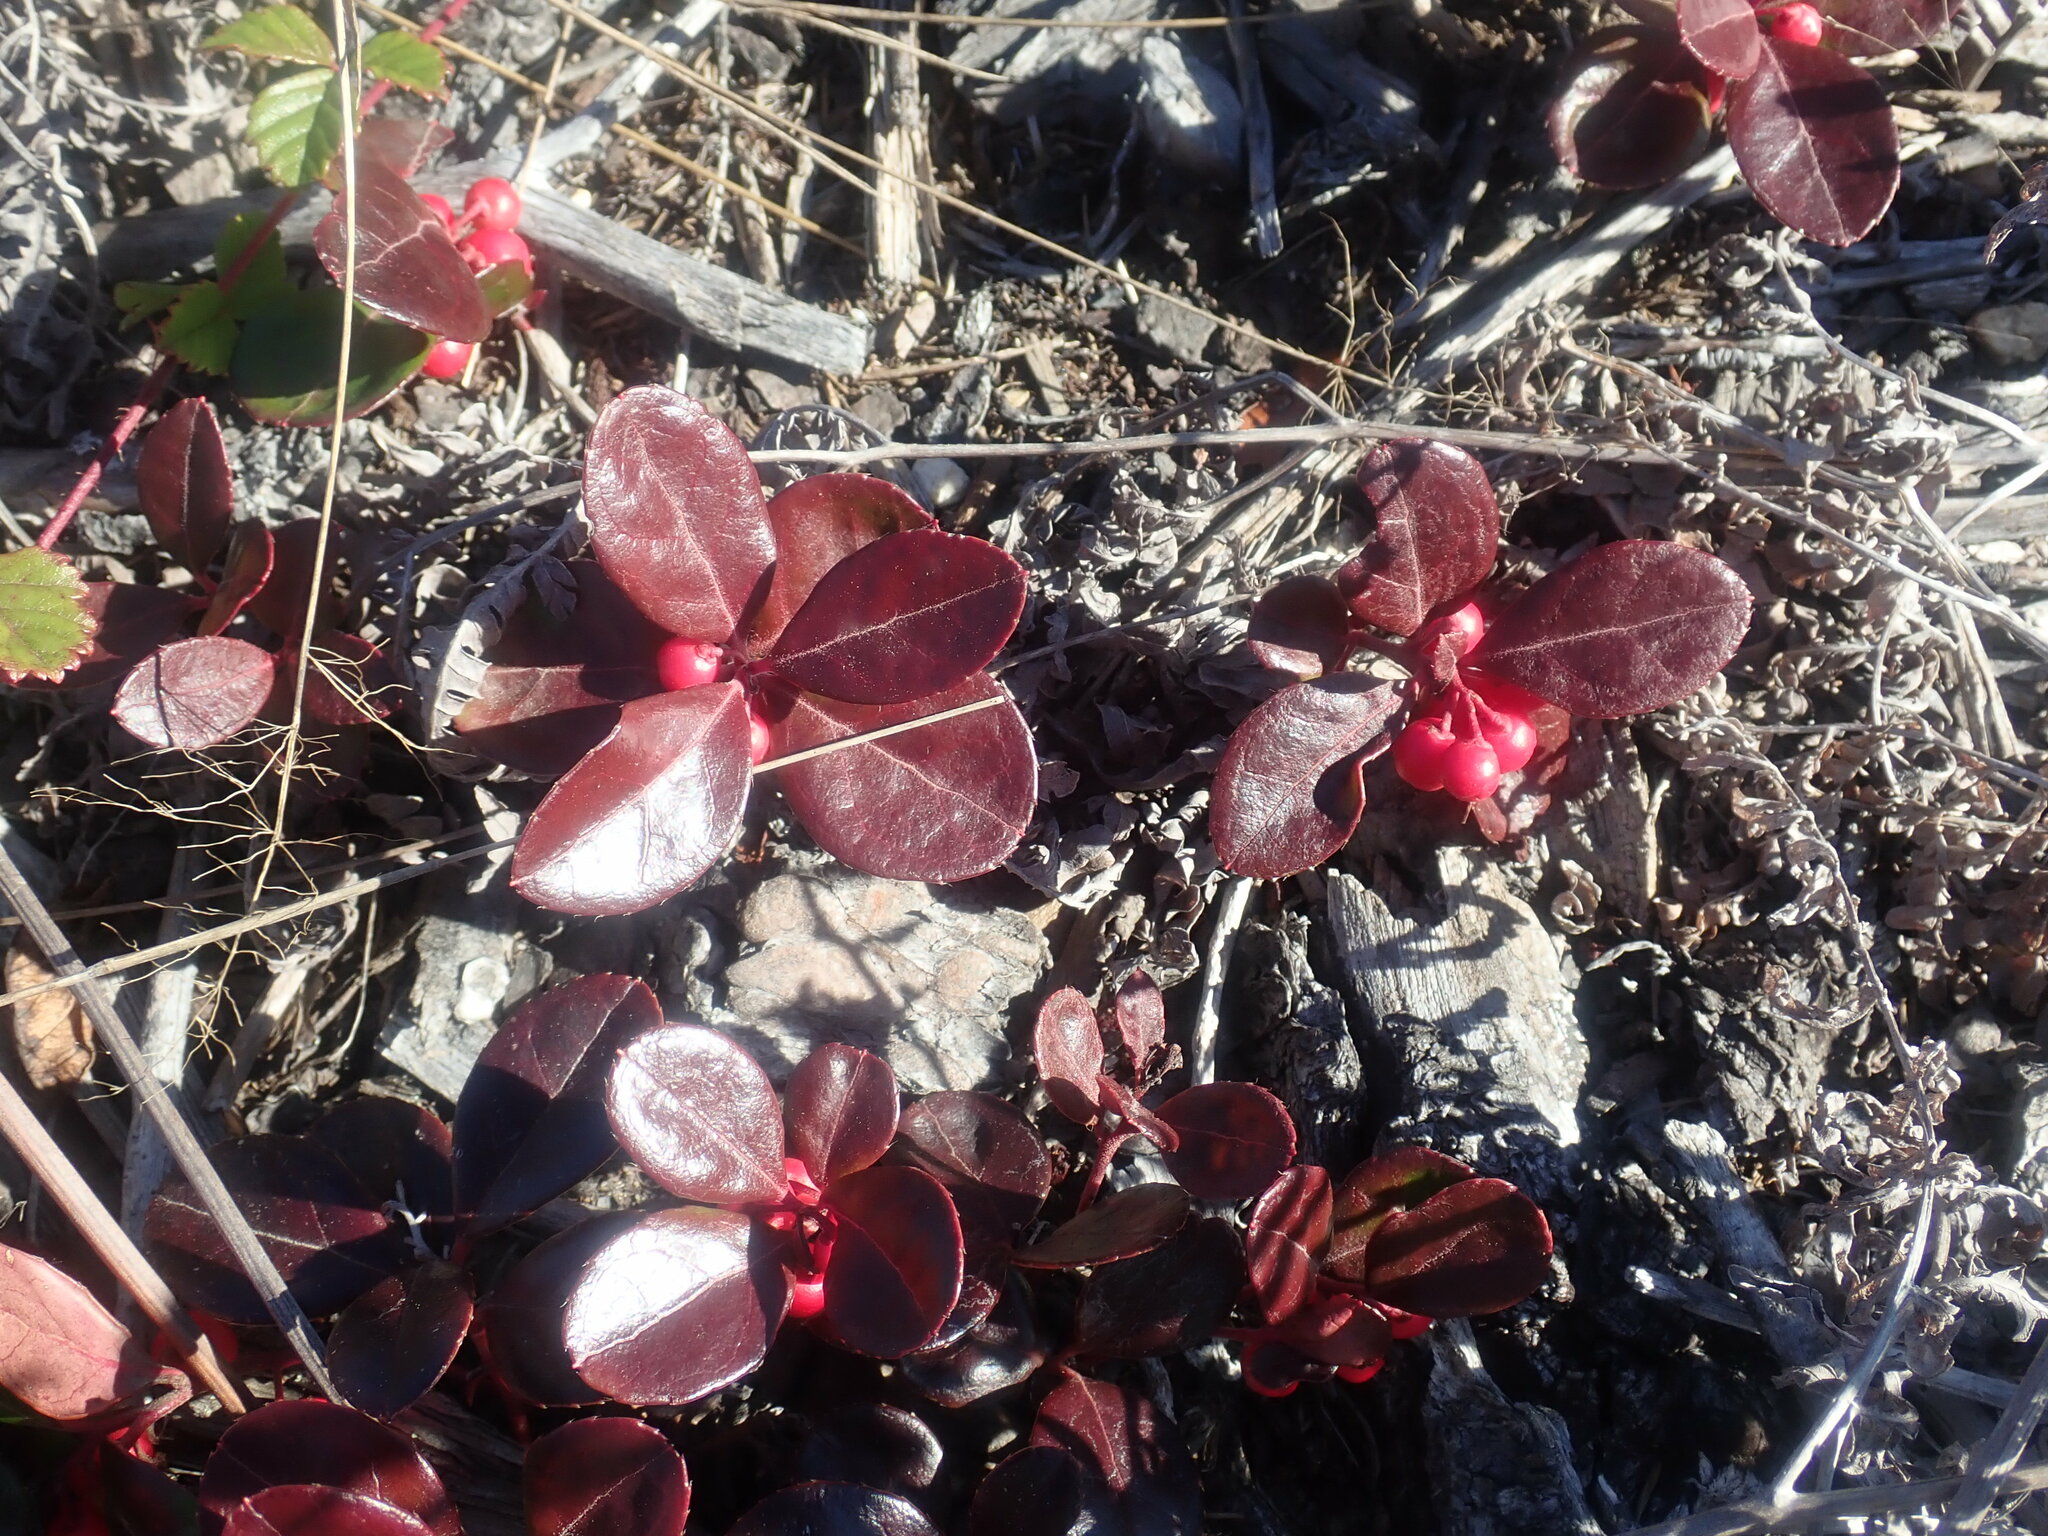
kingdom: Plantae
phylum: Tracheophyta
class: Magnoliopsida
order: Ericales
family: Ericaceae
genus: Gaultheria
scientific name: Gaultheria procumbens
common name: Checkerberry
